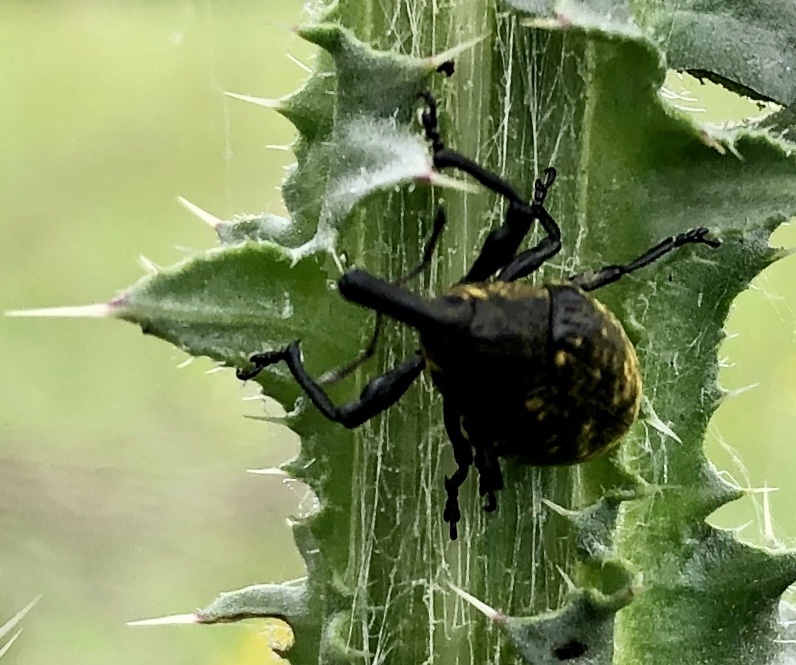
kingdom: Animalia
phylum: Arthropoda
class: Insecta
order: Coleoptera
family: Curculionidae
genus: Larinus
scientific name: Larinus sturnus
